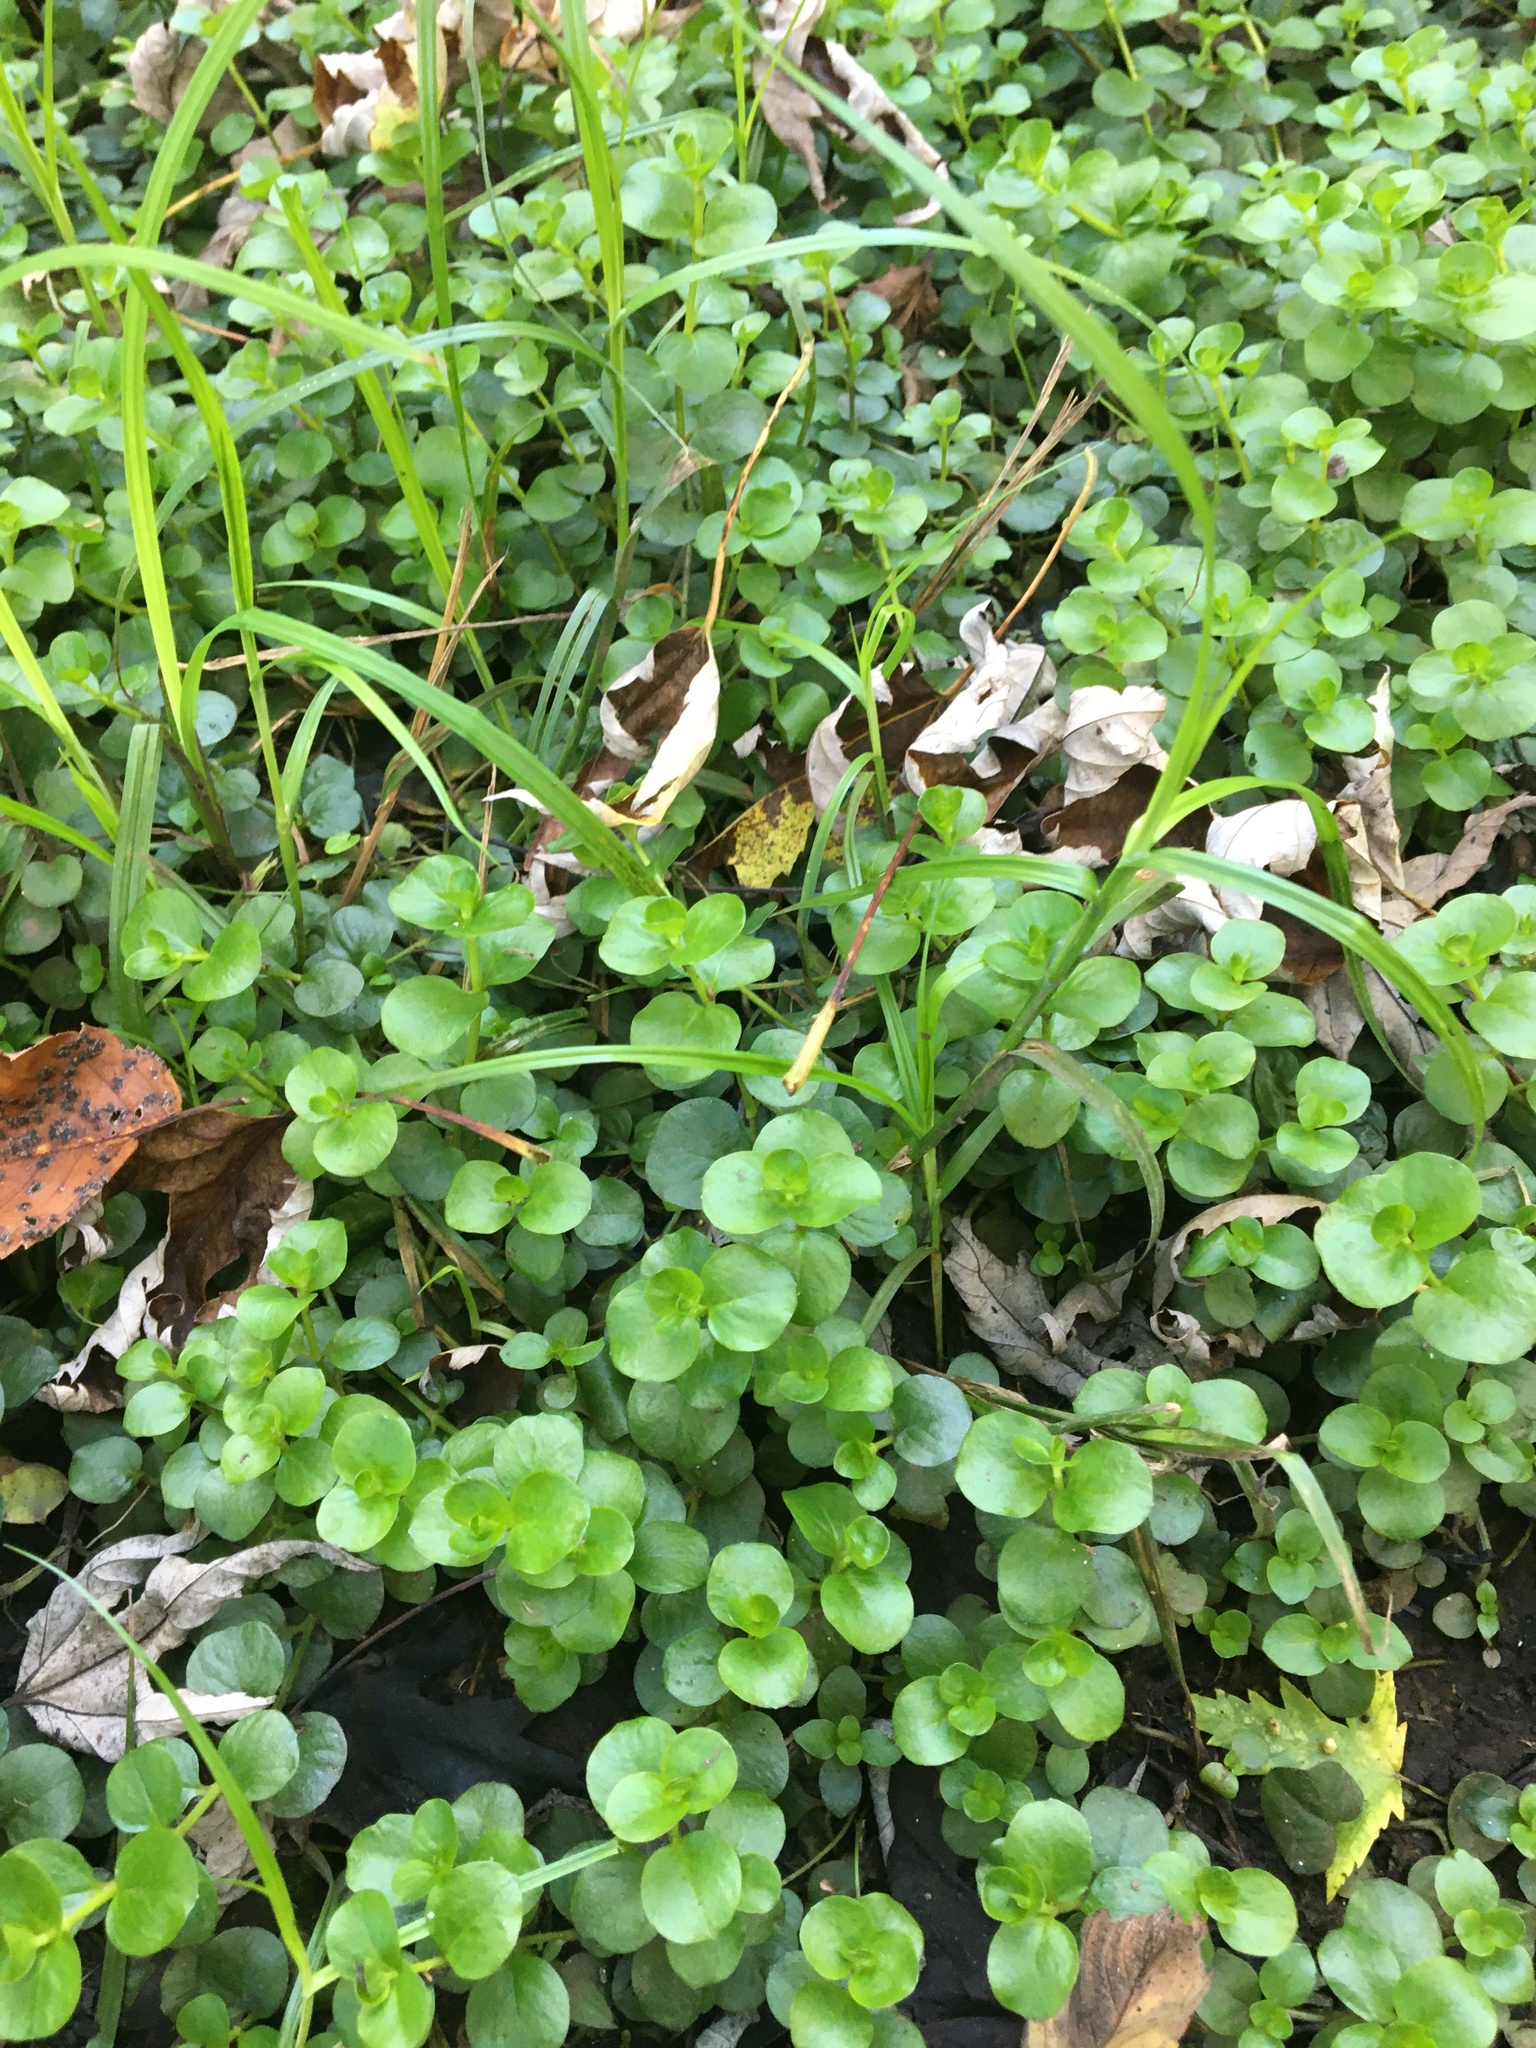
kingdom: Plantae
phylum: Tracheophyta
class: Magnoliopsida
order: Ericales
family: Primulaceae
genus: Lysimachia
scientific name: Lysimachia nummularia
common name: Moneywort
